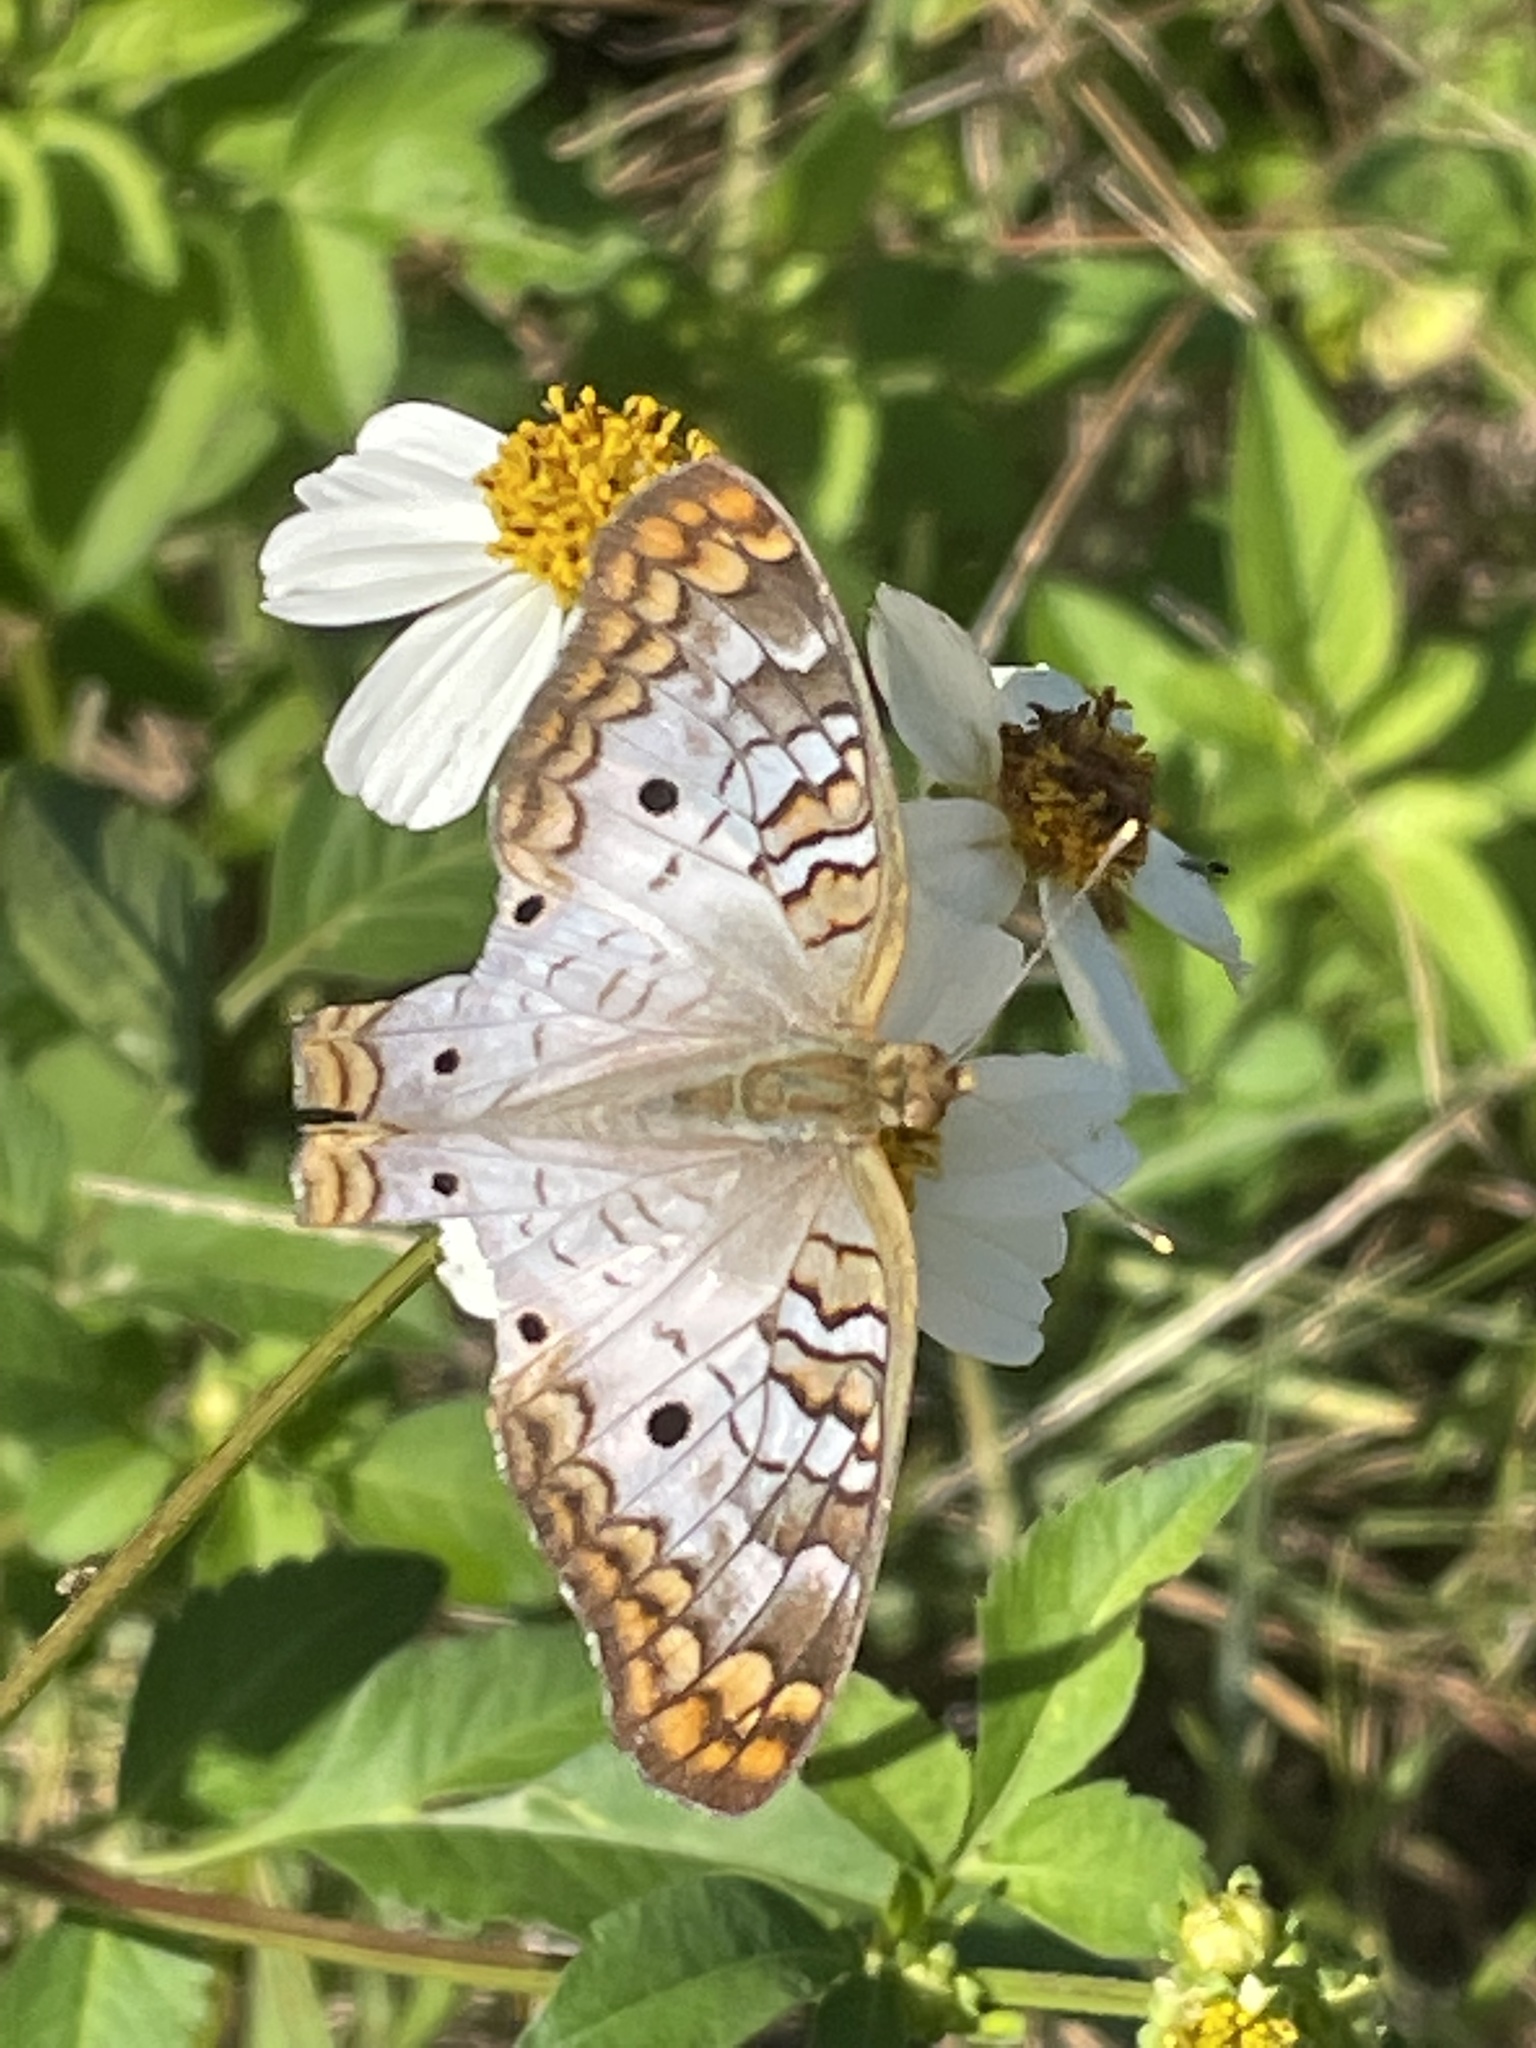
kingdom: Animalia
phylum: Arthropoda
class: Insecta
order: Lepidoptera
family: Nymphalidae
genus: Anartia
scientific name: Anartia jatrophae
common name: White peacock
